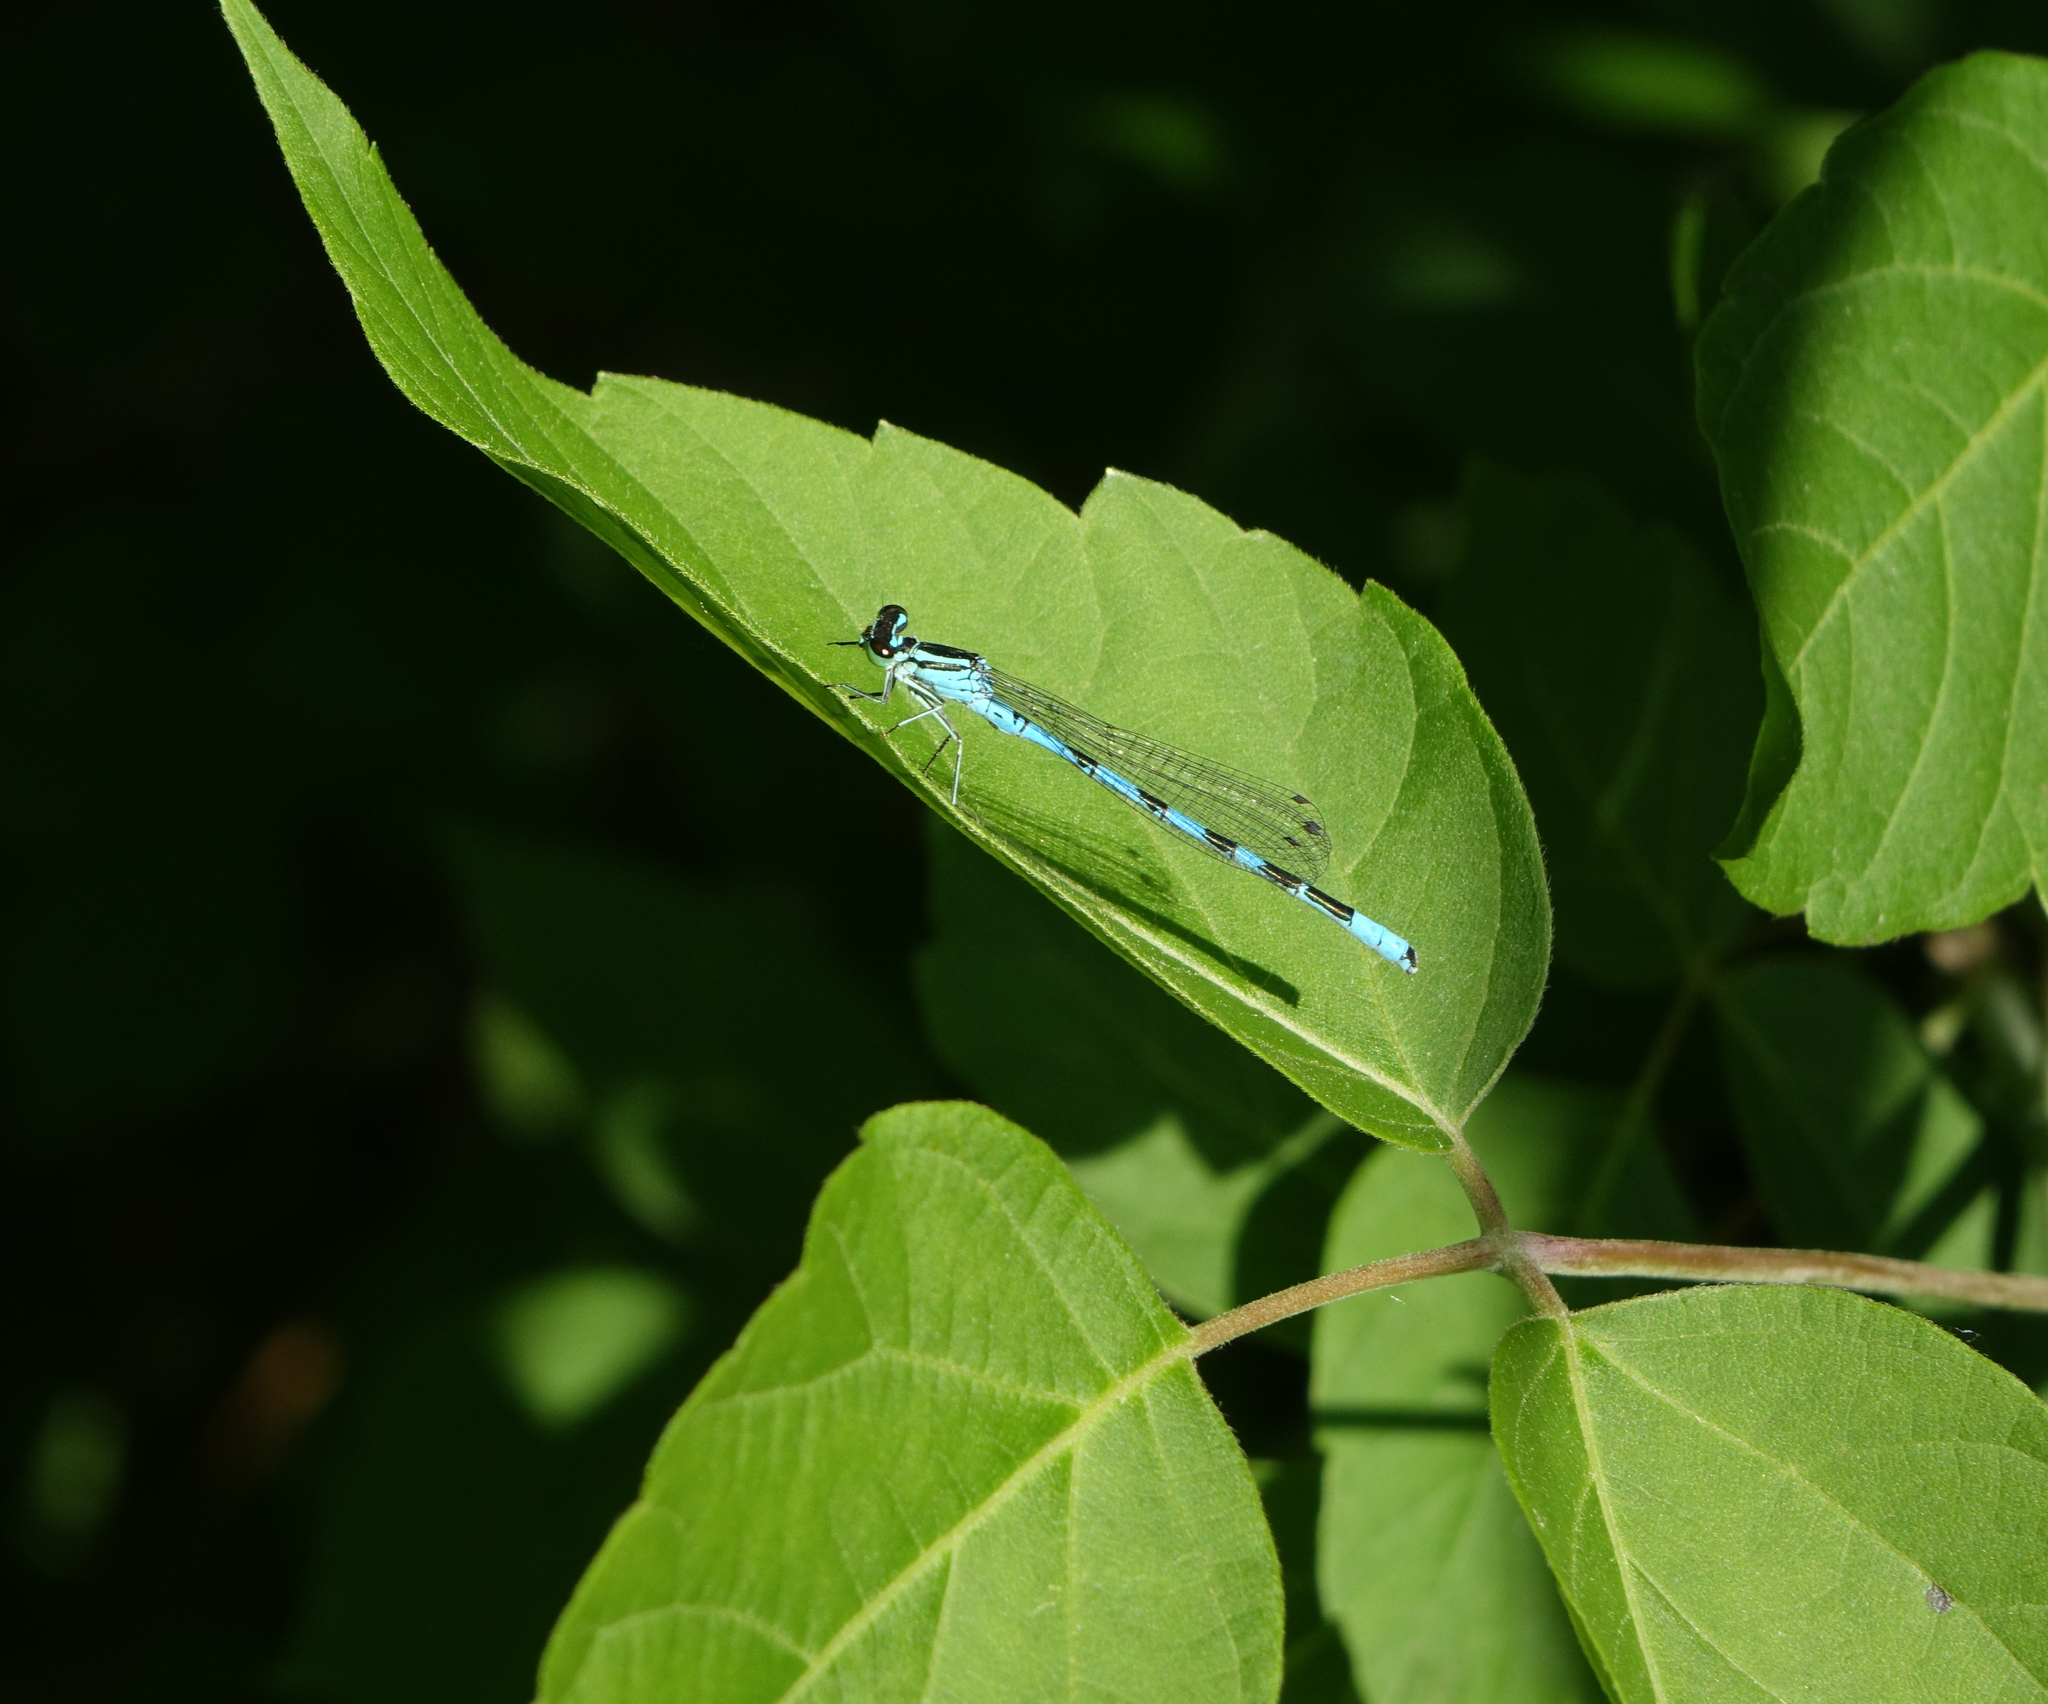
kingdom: Plantae
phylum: Tracheophyta
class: Magnoliopsida
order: Sapindales
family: Sapindaceae
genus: Acer
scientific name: Acer negundo
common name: Ashleaf maple
